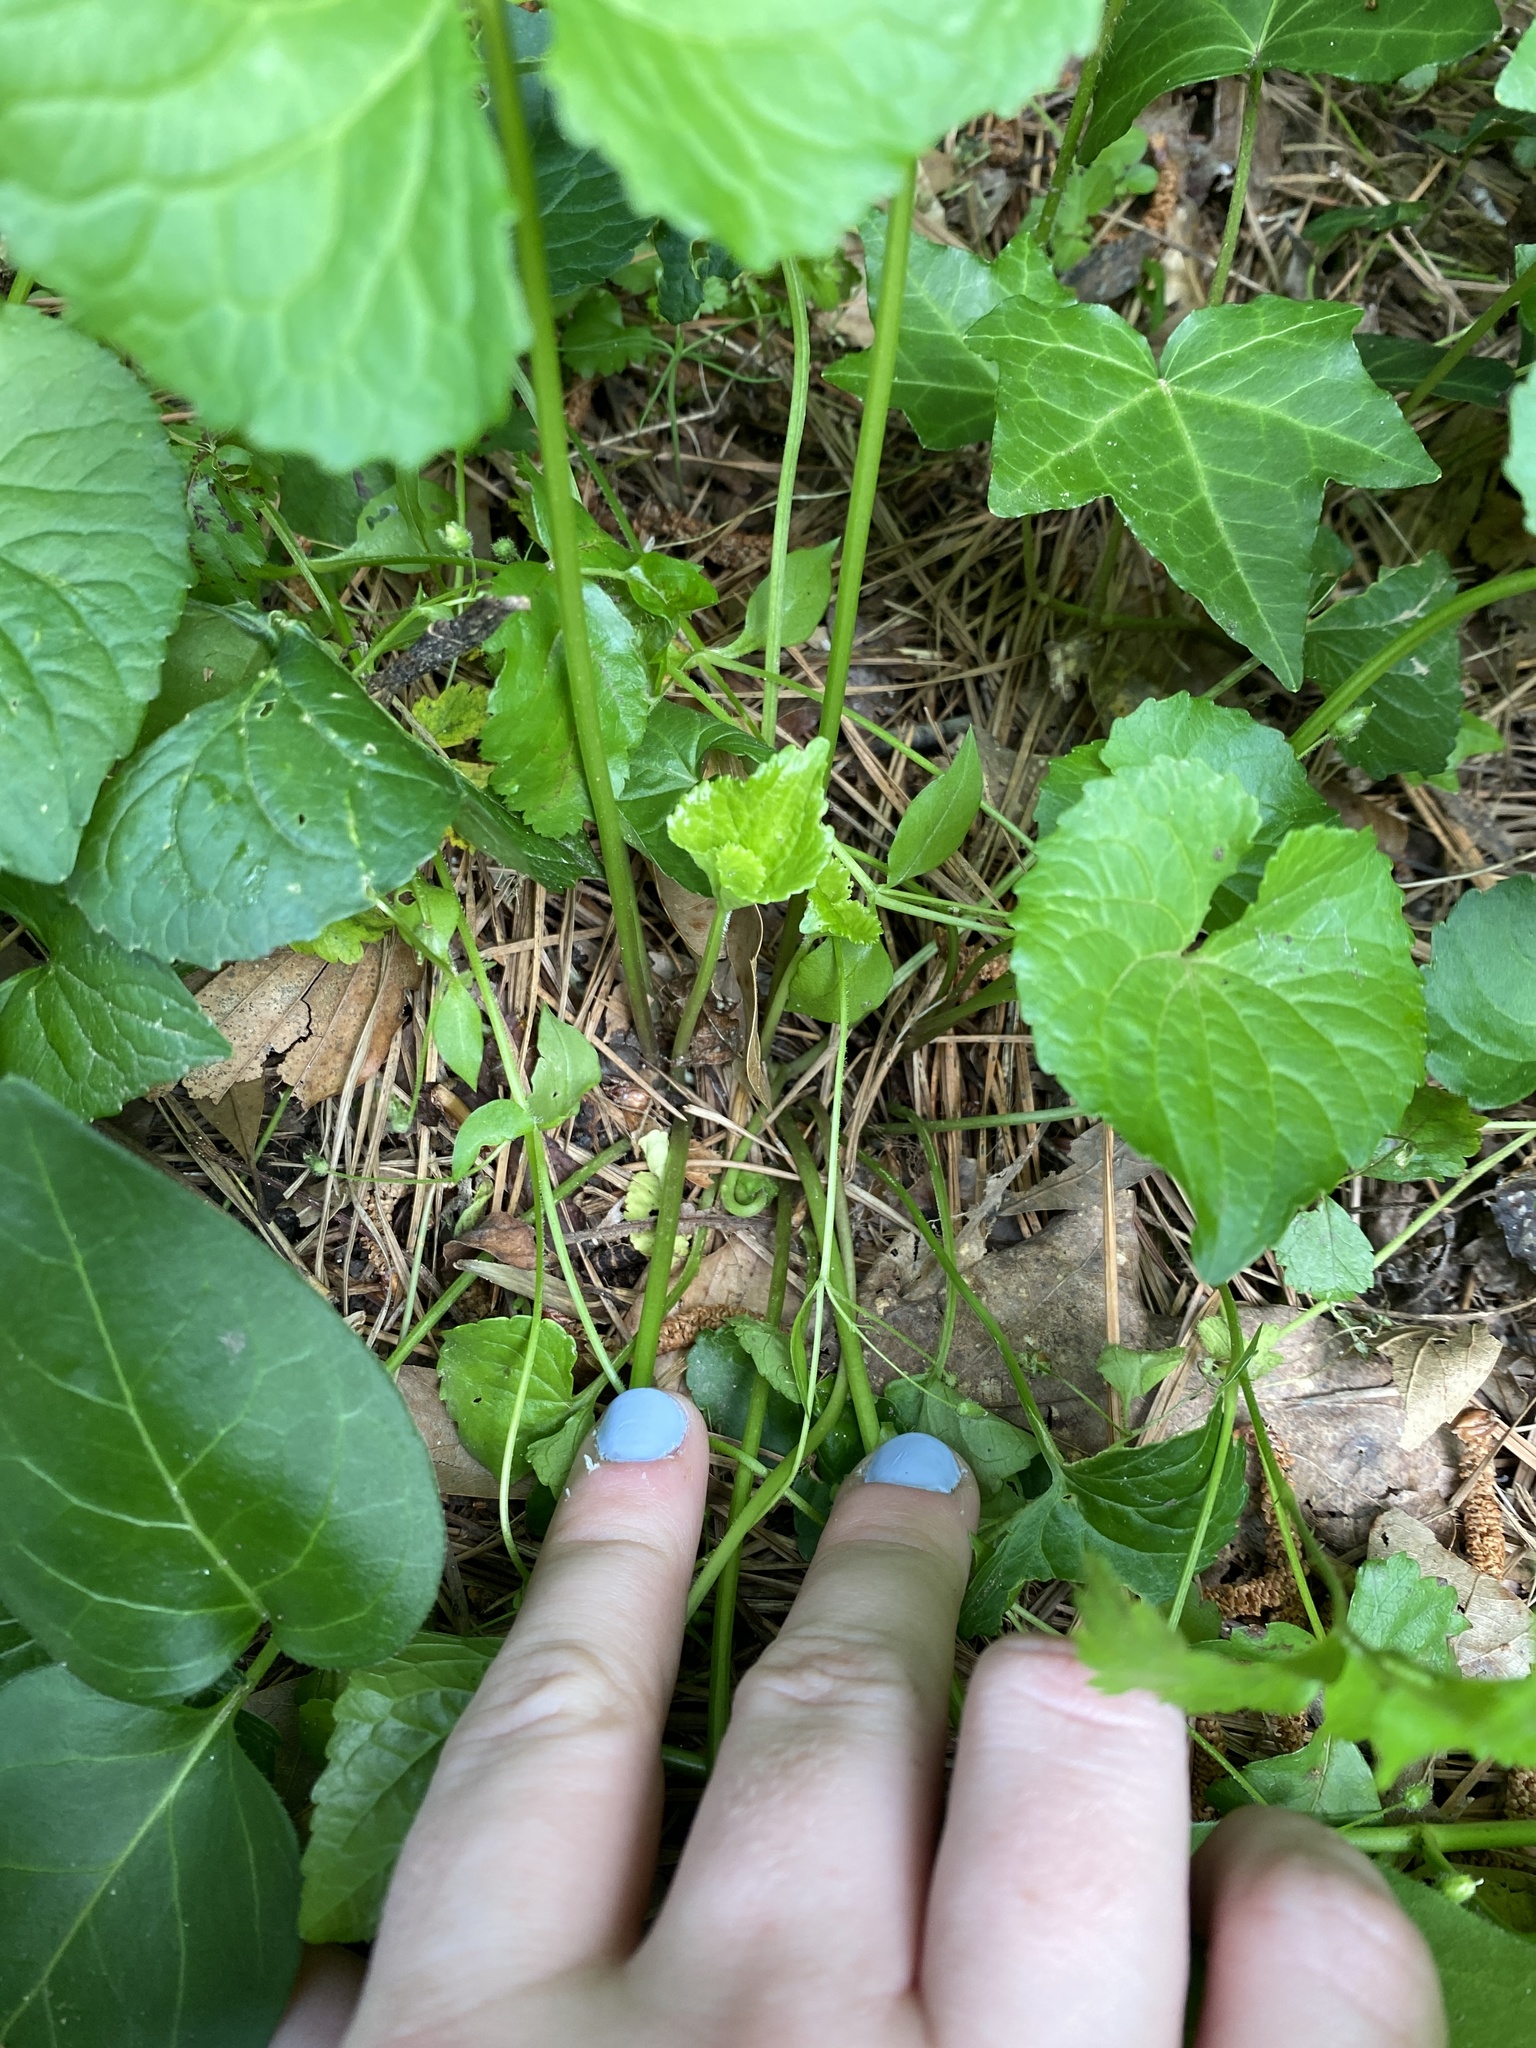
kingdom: Plantae
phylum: Tracheophyta
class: Magnoliopsida
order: Malpighiales
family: Violaceae
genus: Viola
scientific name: Viola sororia
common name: Dooryard violet
